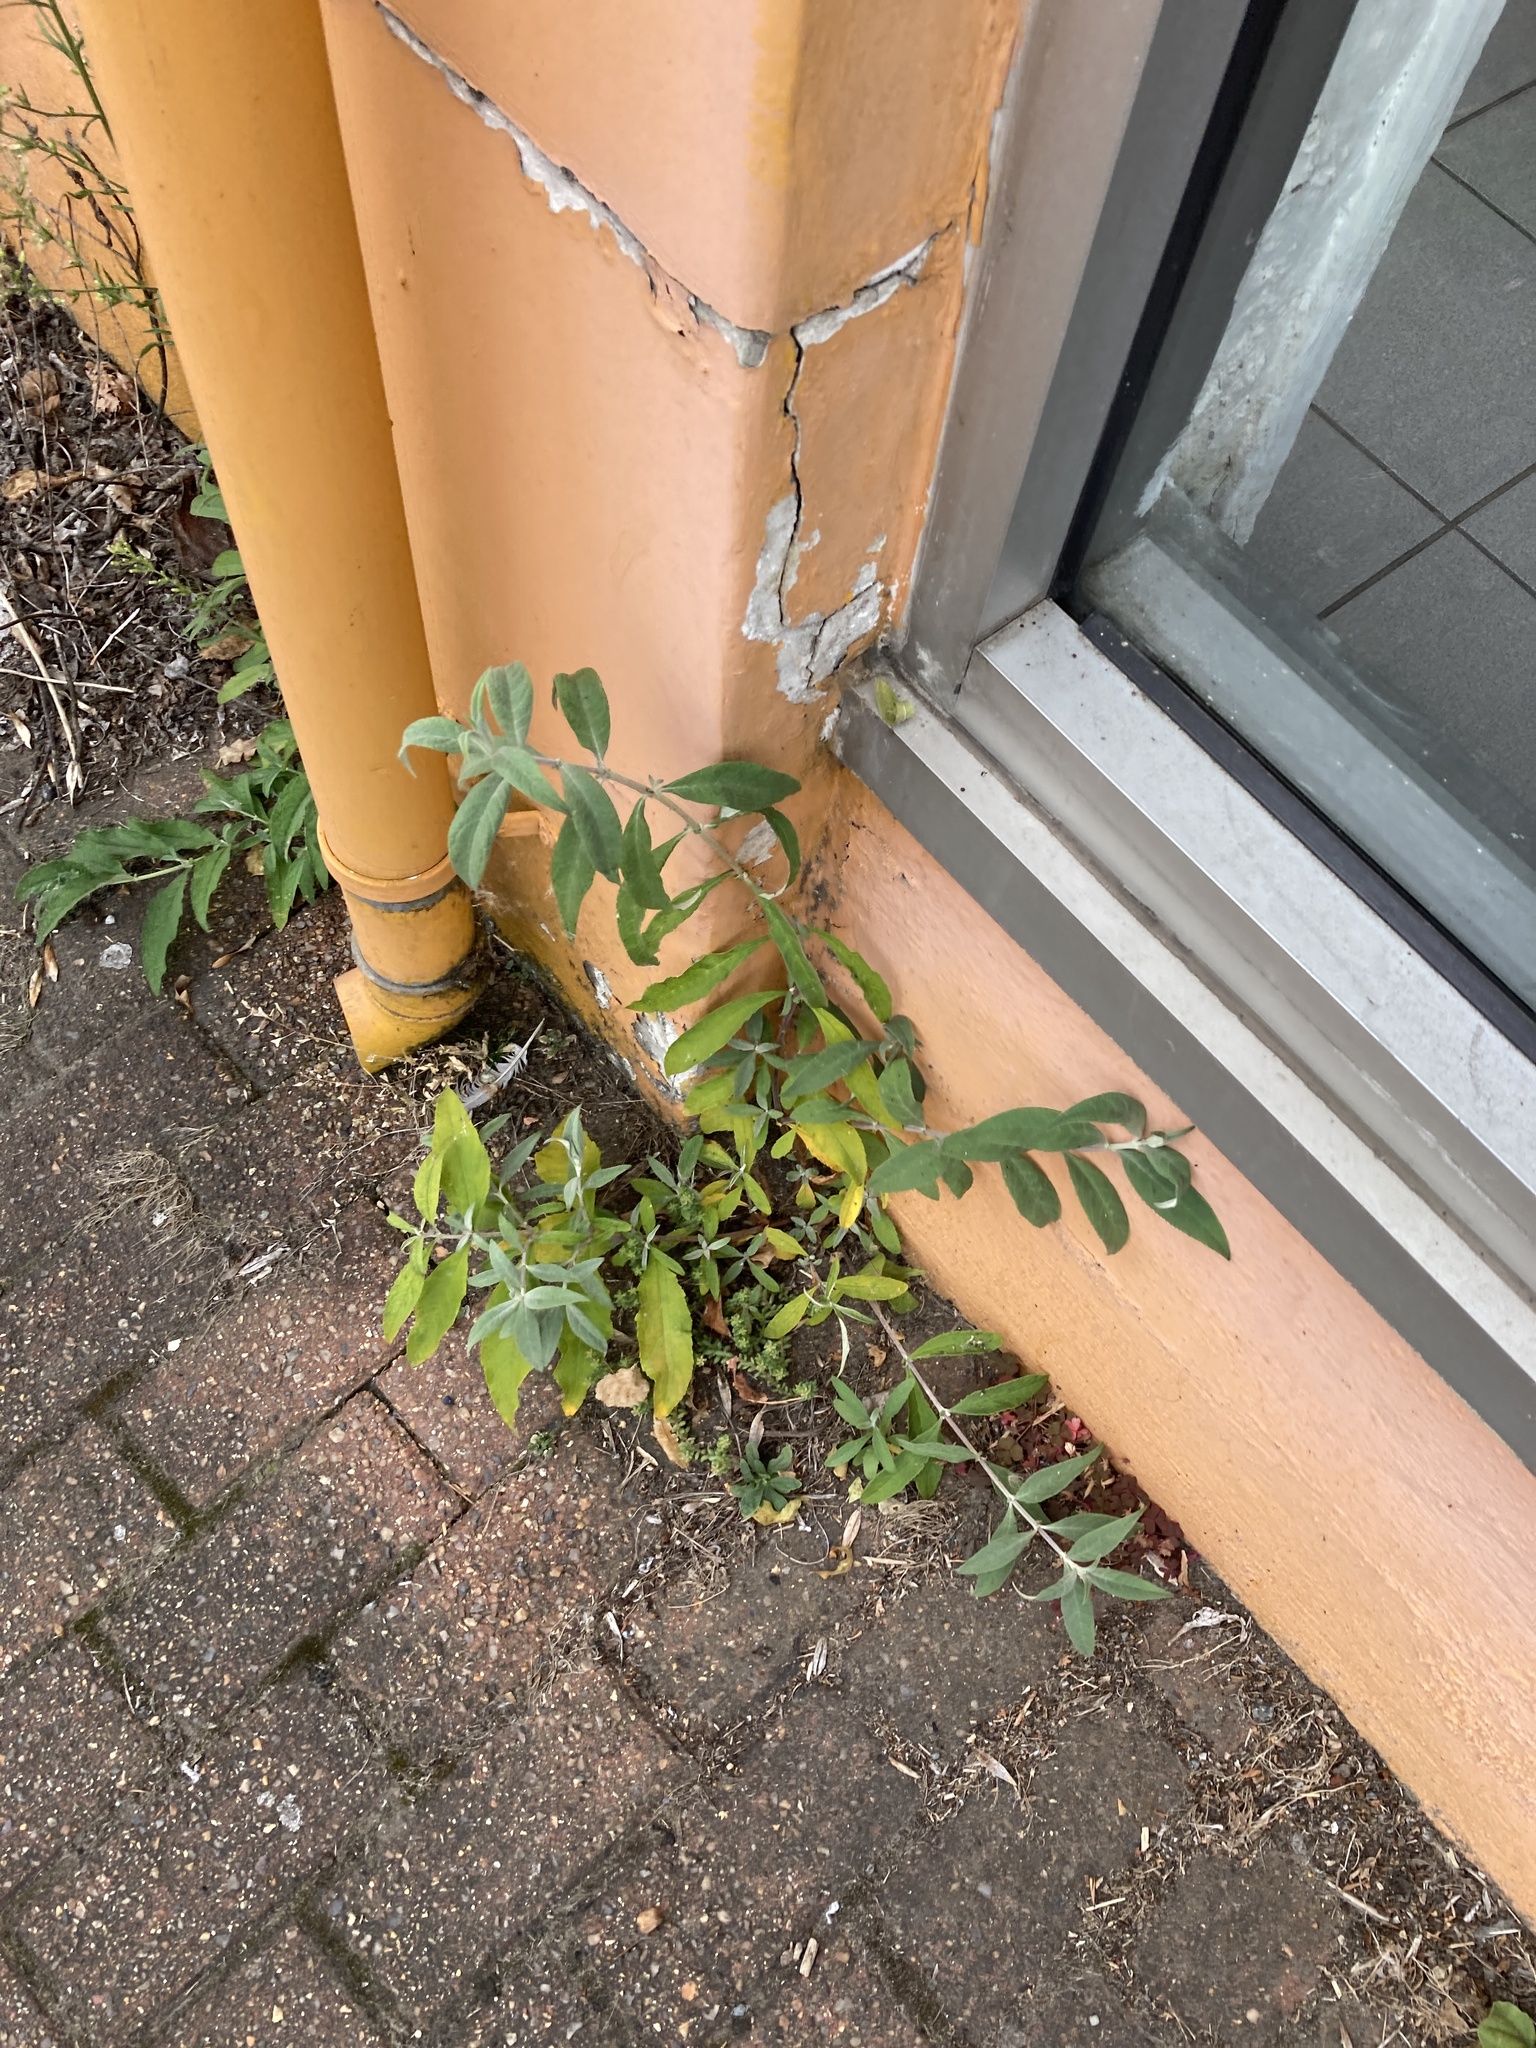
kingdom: Plantae
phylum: Tracheophyta
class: Magnoliopsida
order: Lamiales
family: Scrophulariaceae
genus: Buddleja
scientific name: Buddleja davidii
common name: Butterfly-bush
